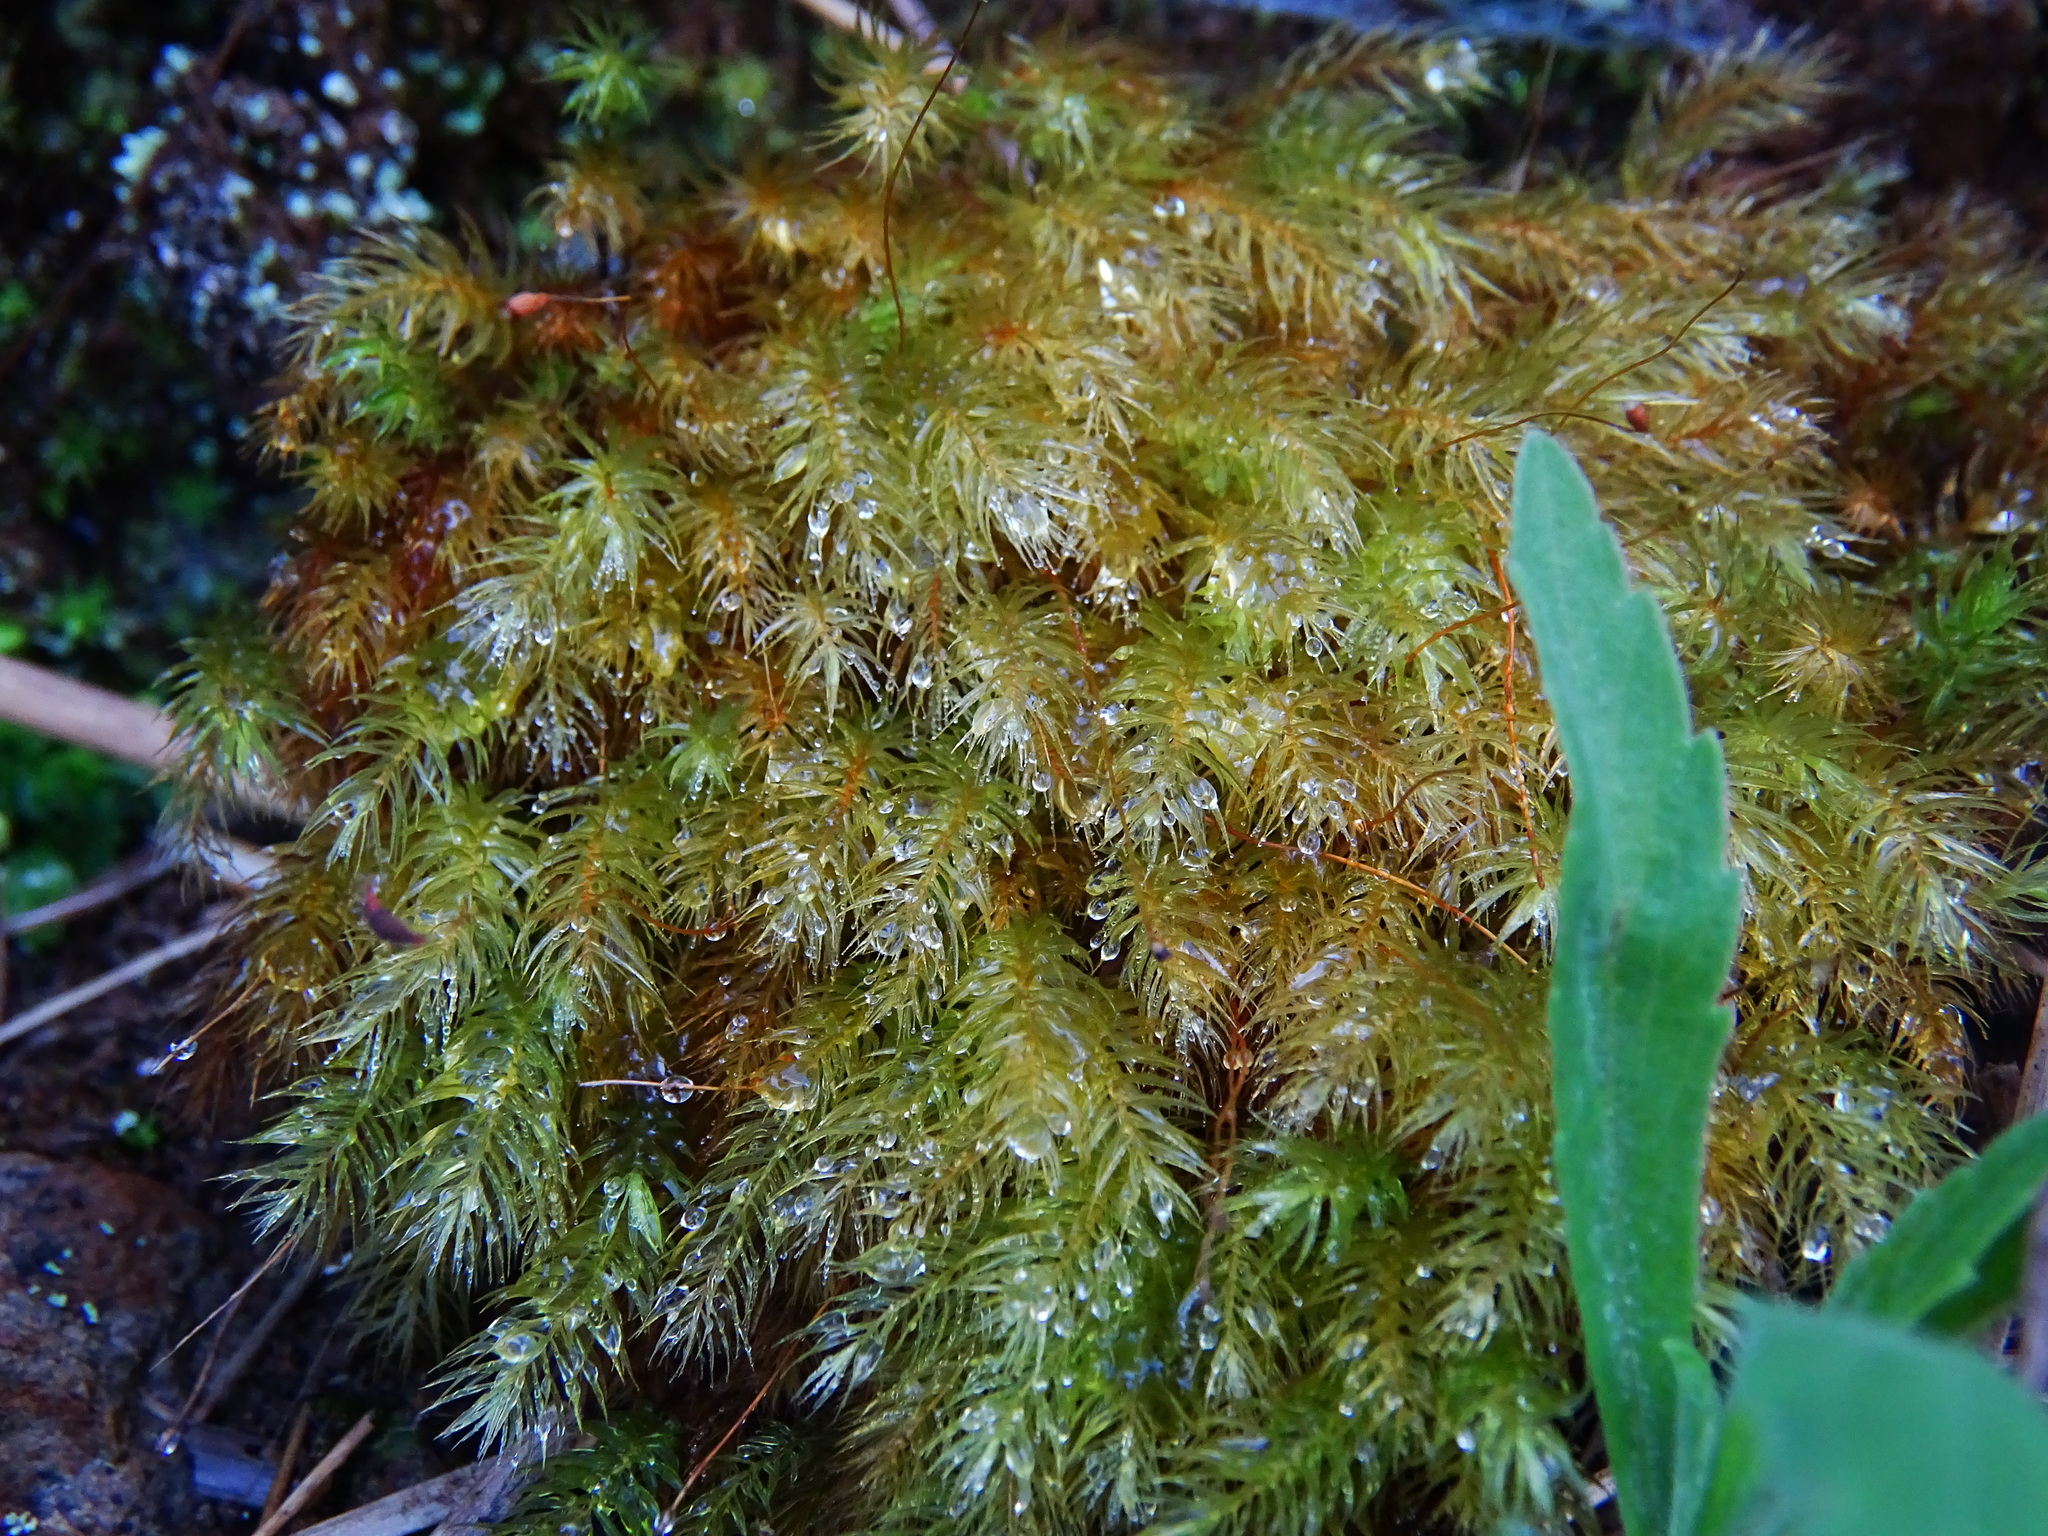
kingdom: Plantae
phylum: Bryophyta
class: Bryopsida
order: Rhizogoniales
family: Calomniaceae
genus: Pyrrhobryum
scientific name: Pyrrhobryum spiniforme
